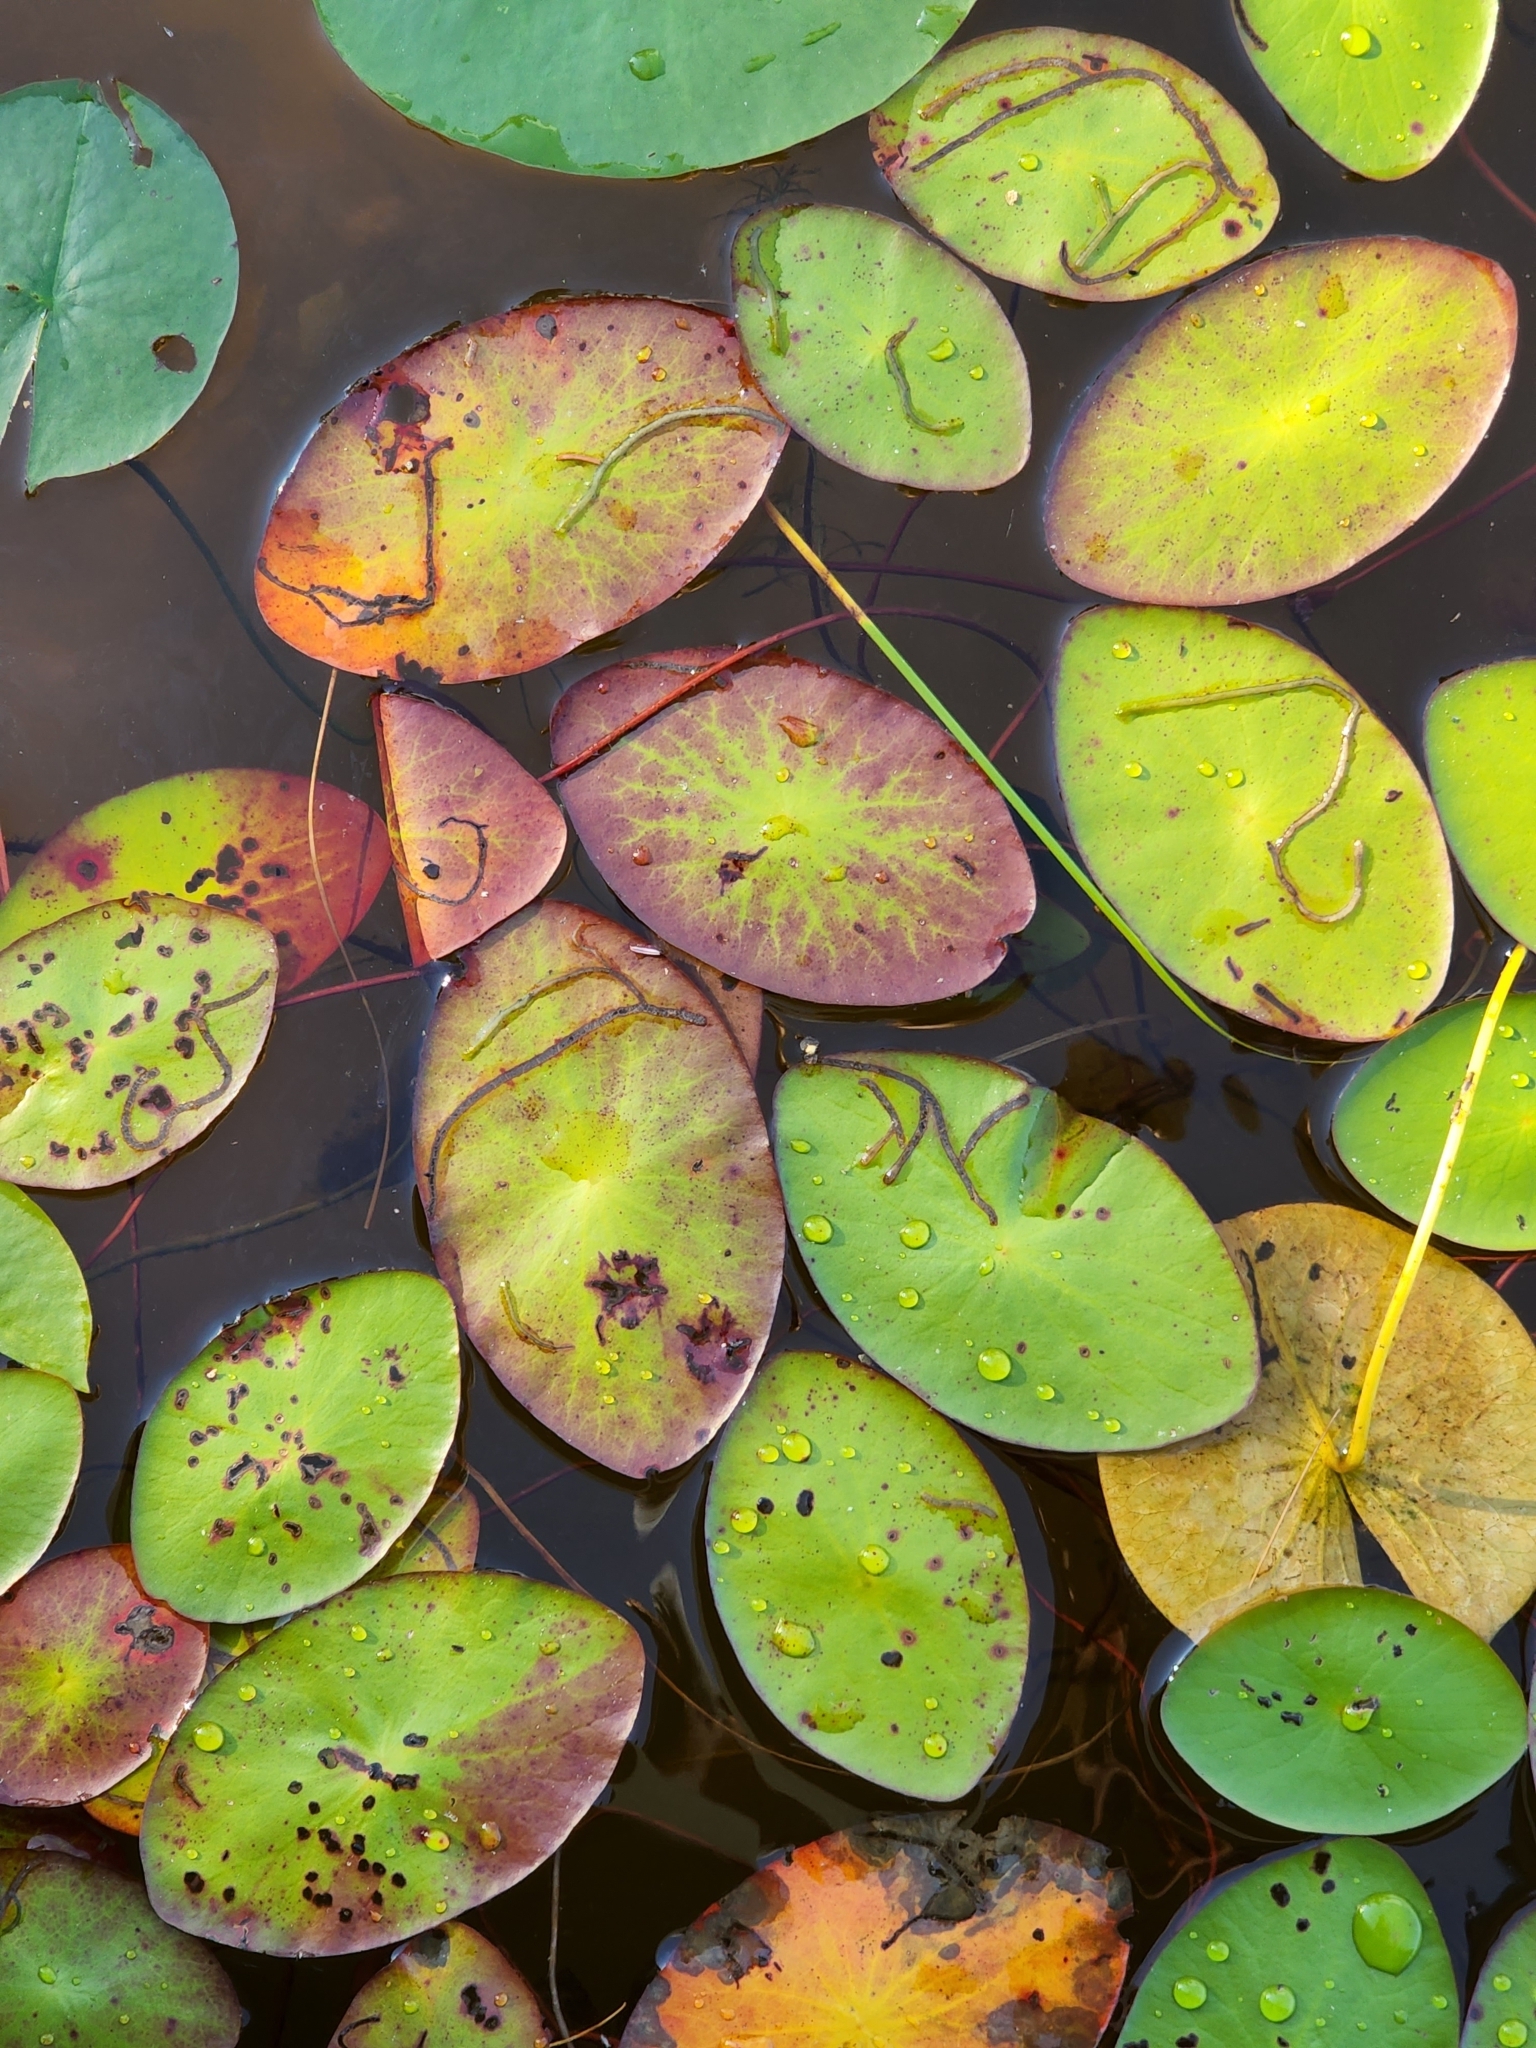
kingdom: Plantae
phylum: Tracheophyta
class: Magnoliopsida
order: Nymphaeales
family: Cabombaceae
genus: Brasenia
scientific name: Brasenia schreberi
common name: Water-shield
